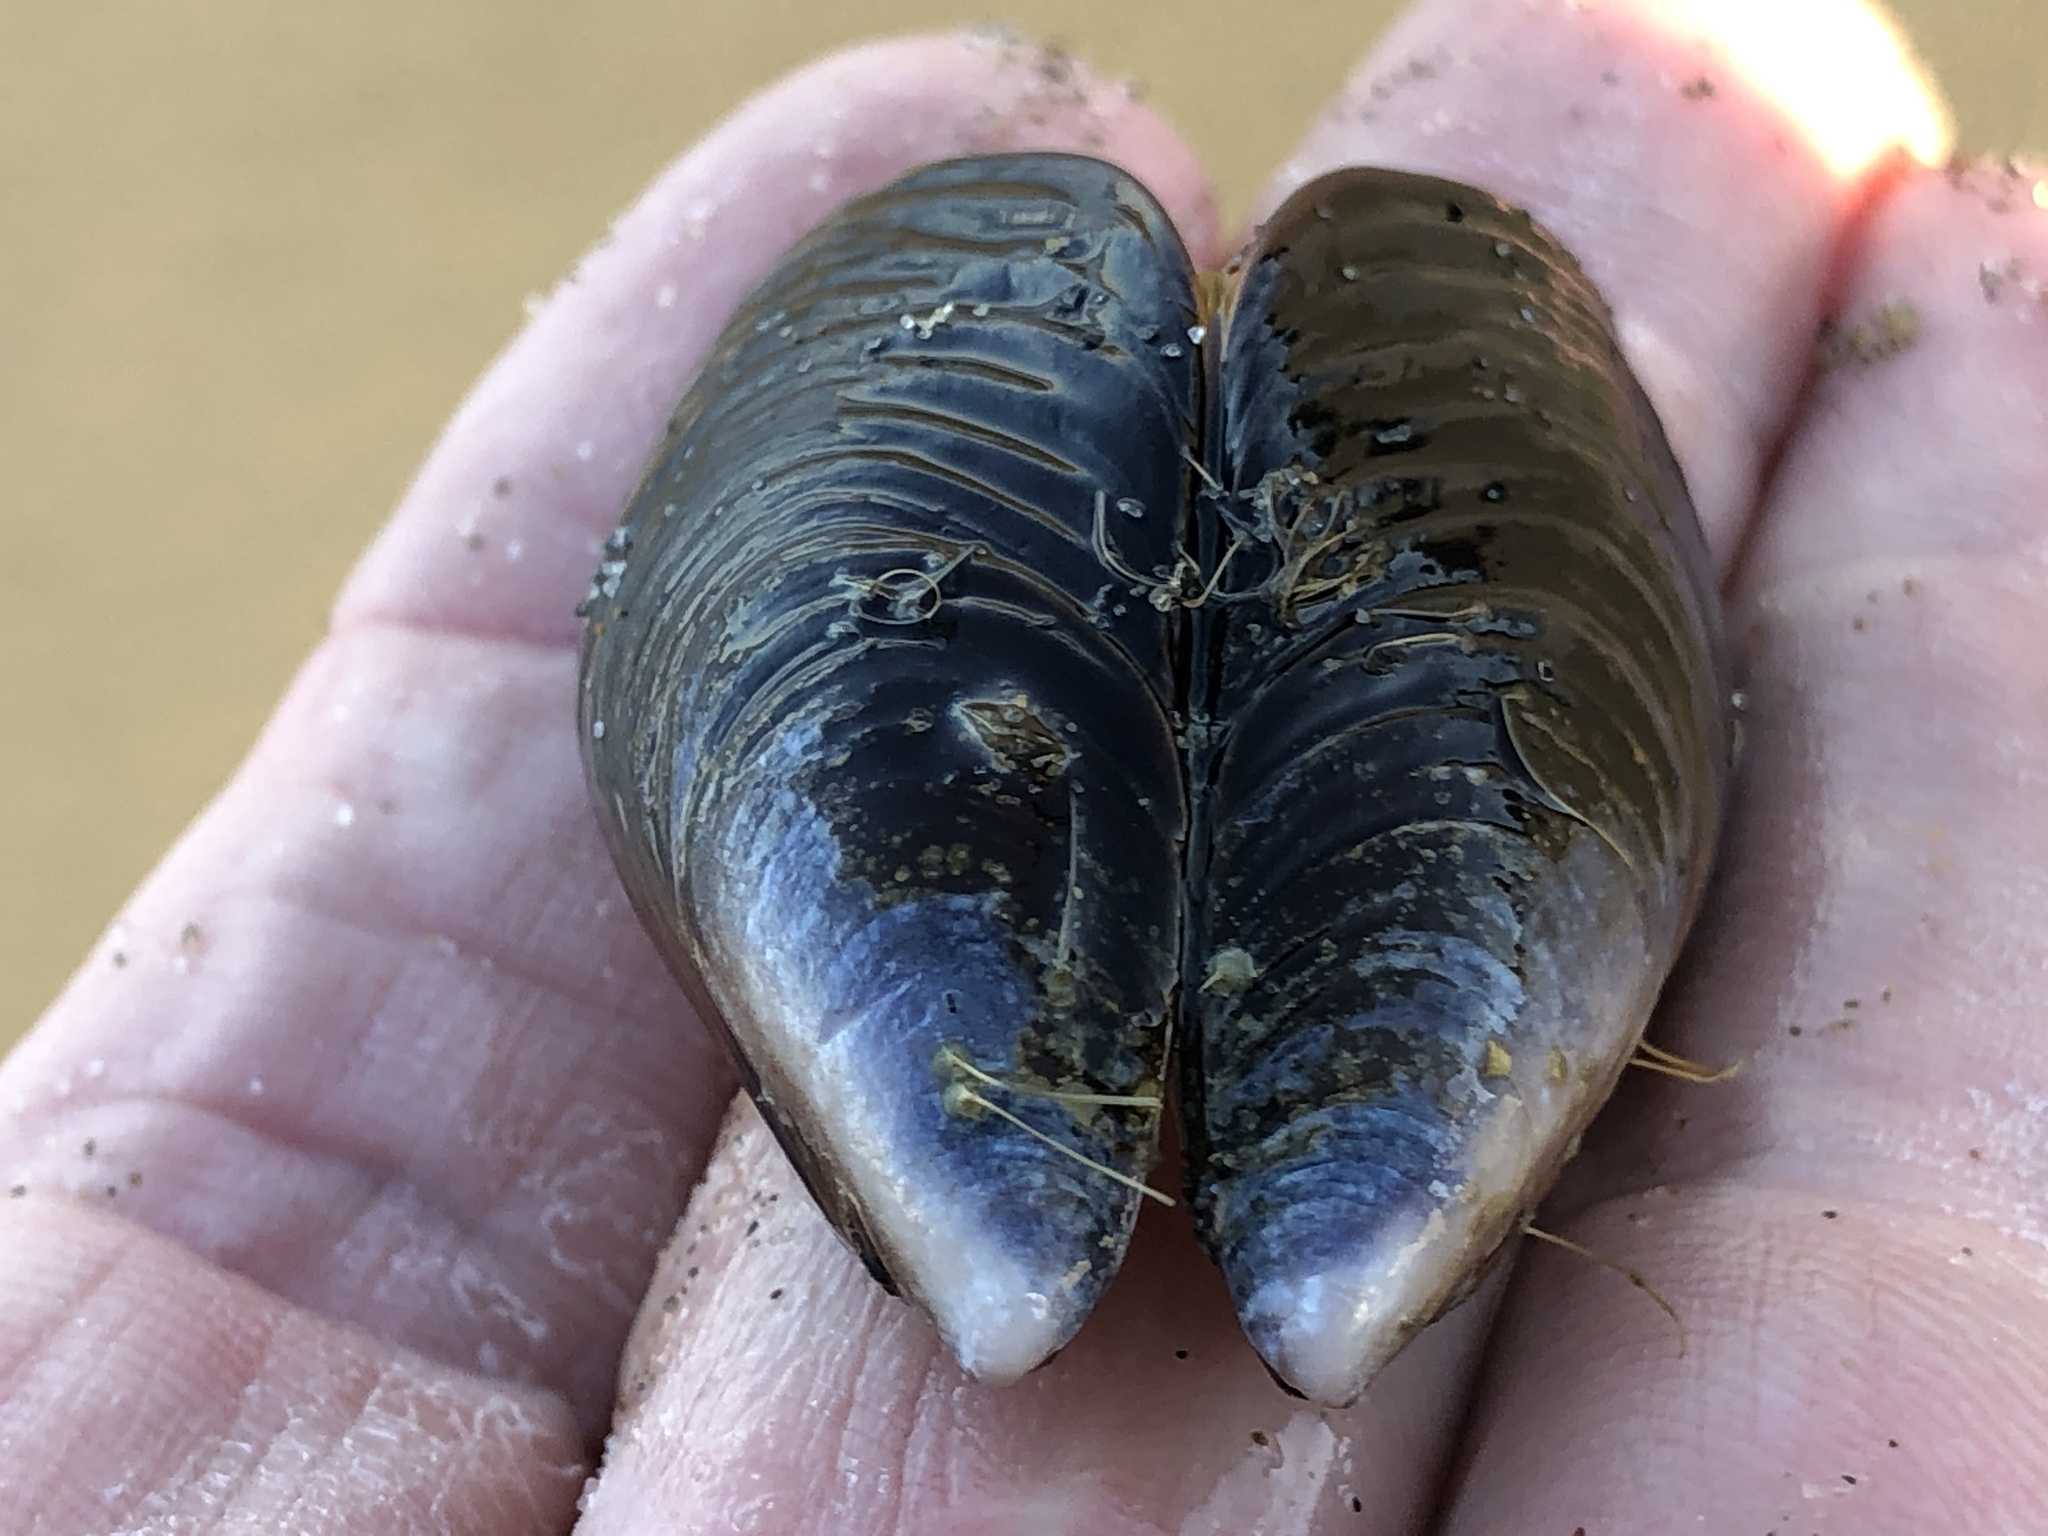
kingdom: Animalia
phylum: Mollusca
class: Bivalvia
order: Mytilida
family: Mytilidae
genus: Mytilus
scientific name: Mytilus californianus
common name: California mussel
